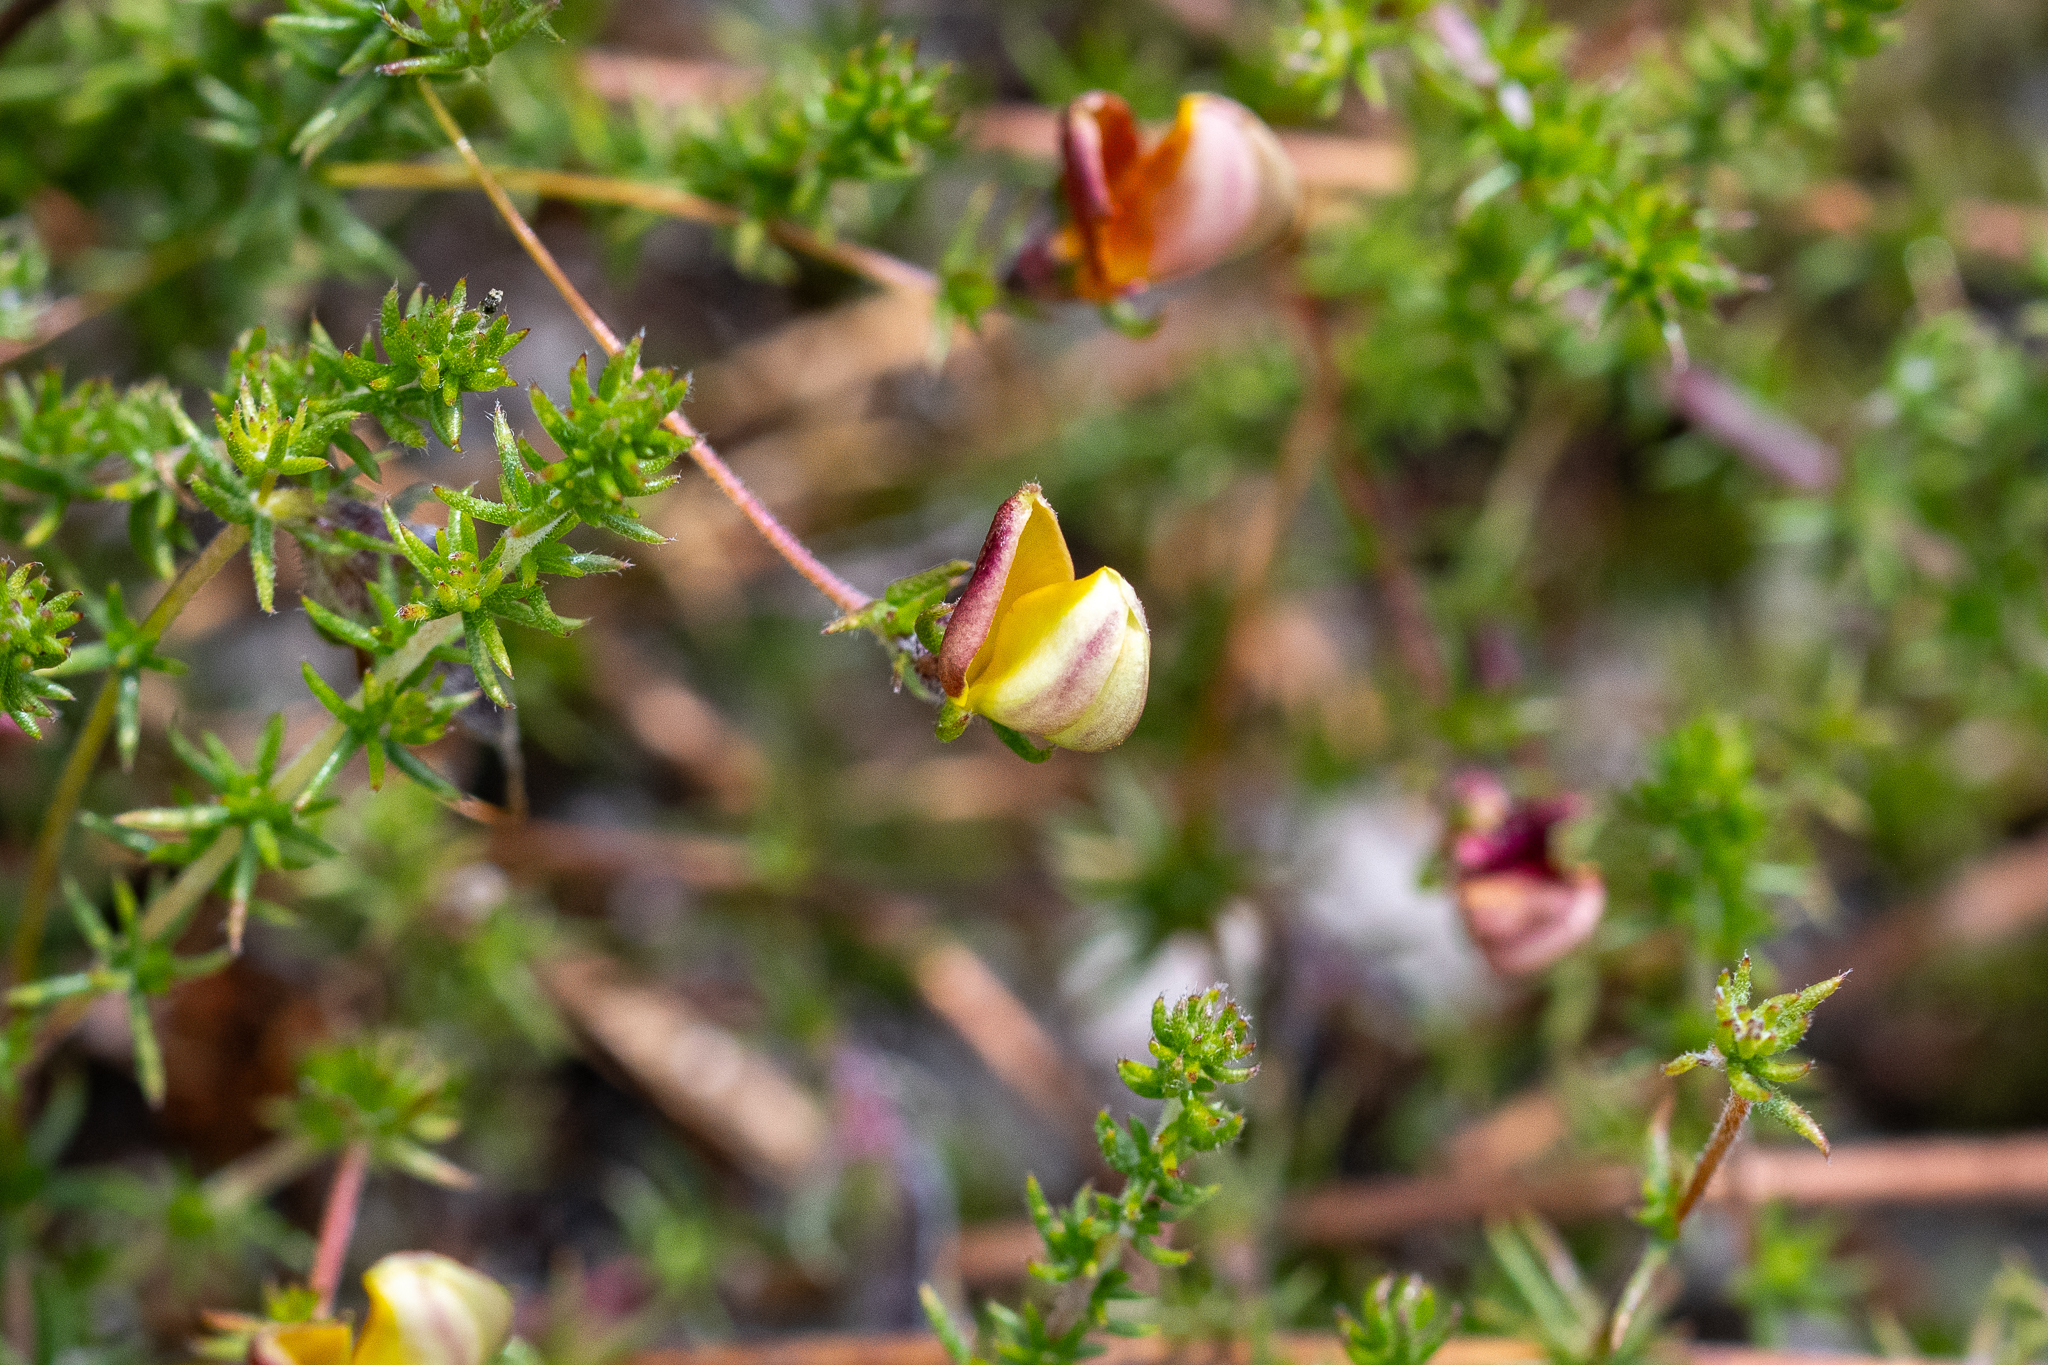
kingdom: Plantae
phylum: Tracheophyta
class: Magnoliopsida
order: Fabales
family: Fabaceae
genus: Aspalathus
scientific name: Aspalathus retroflexa
